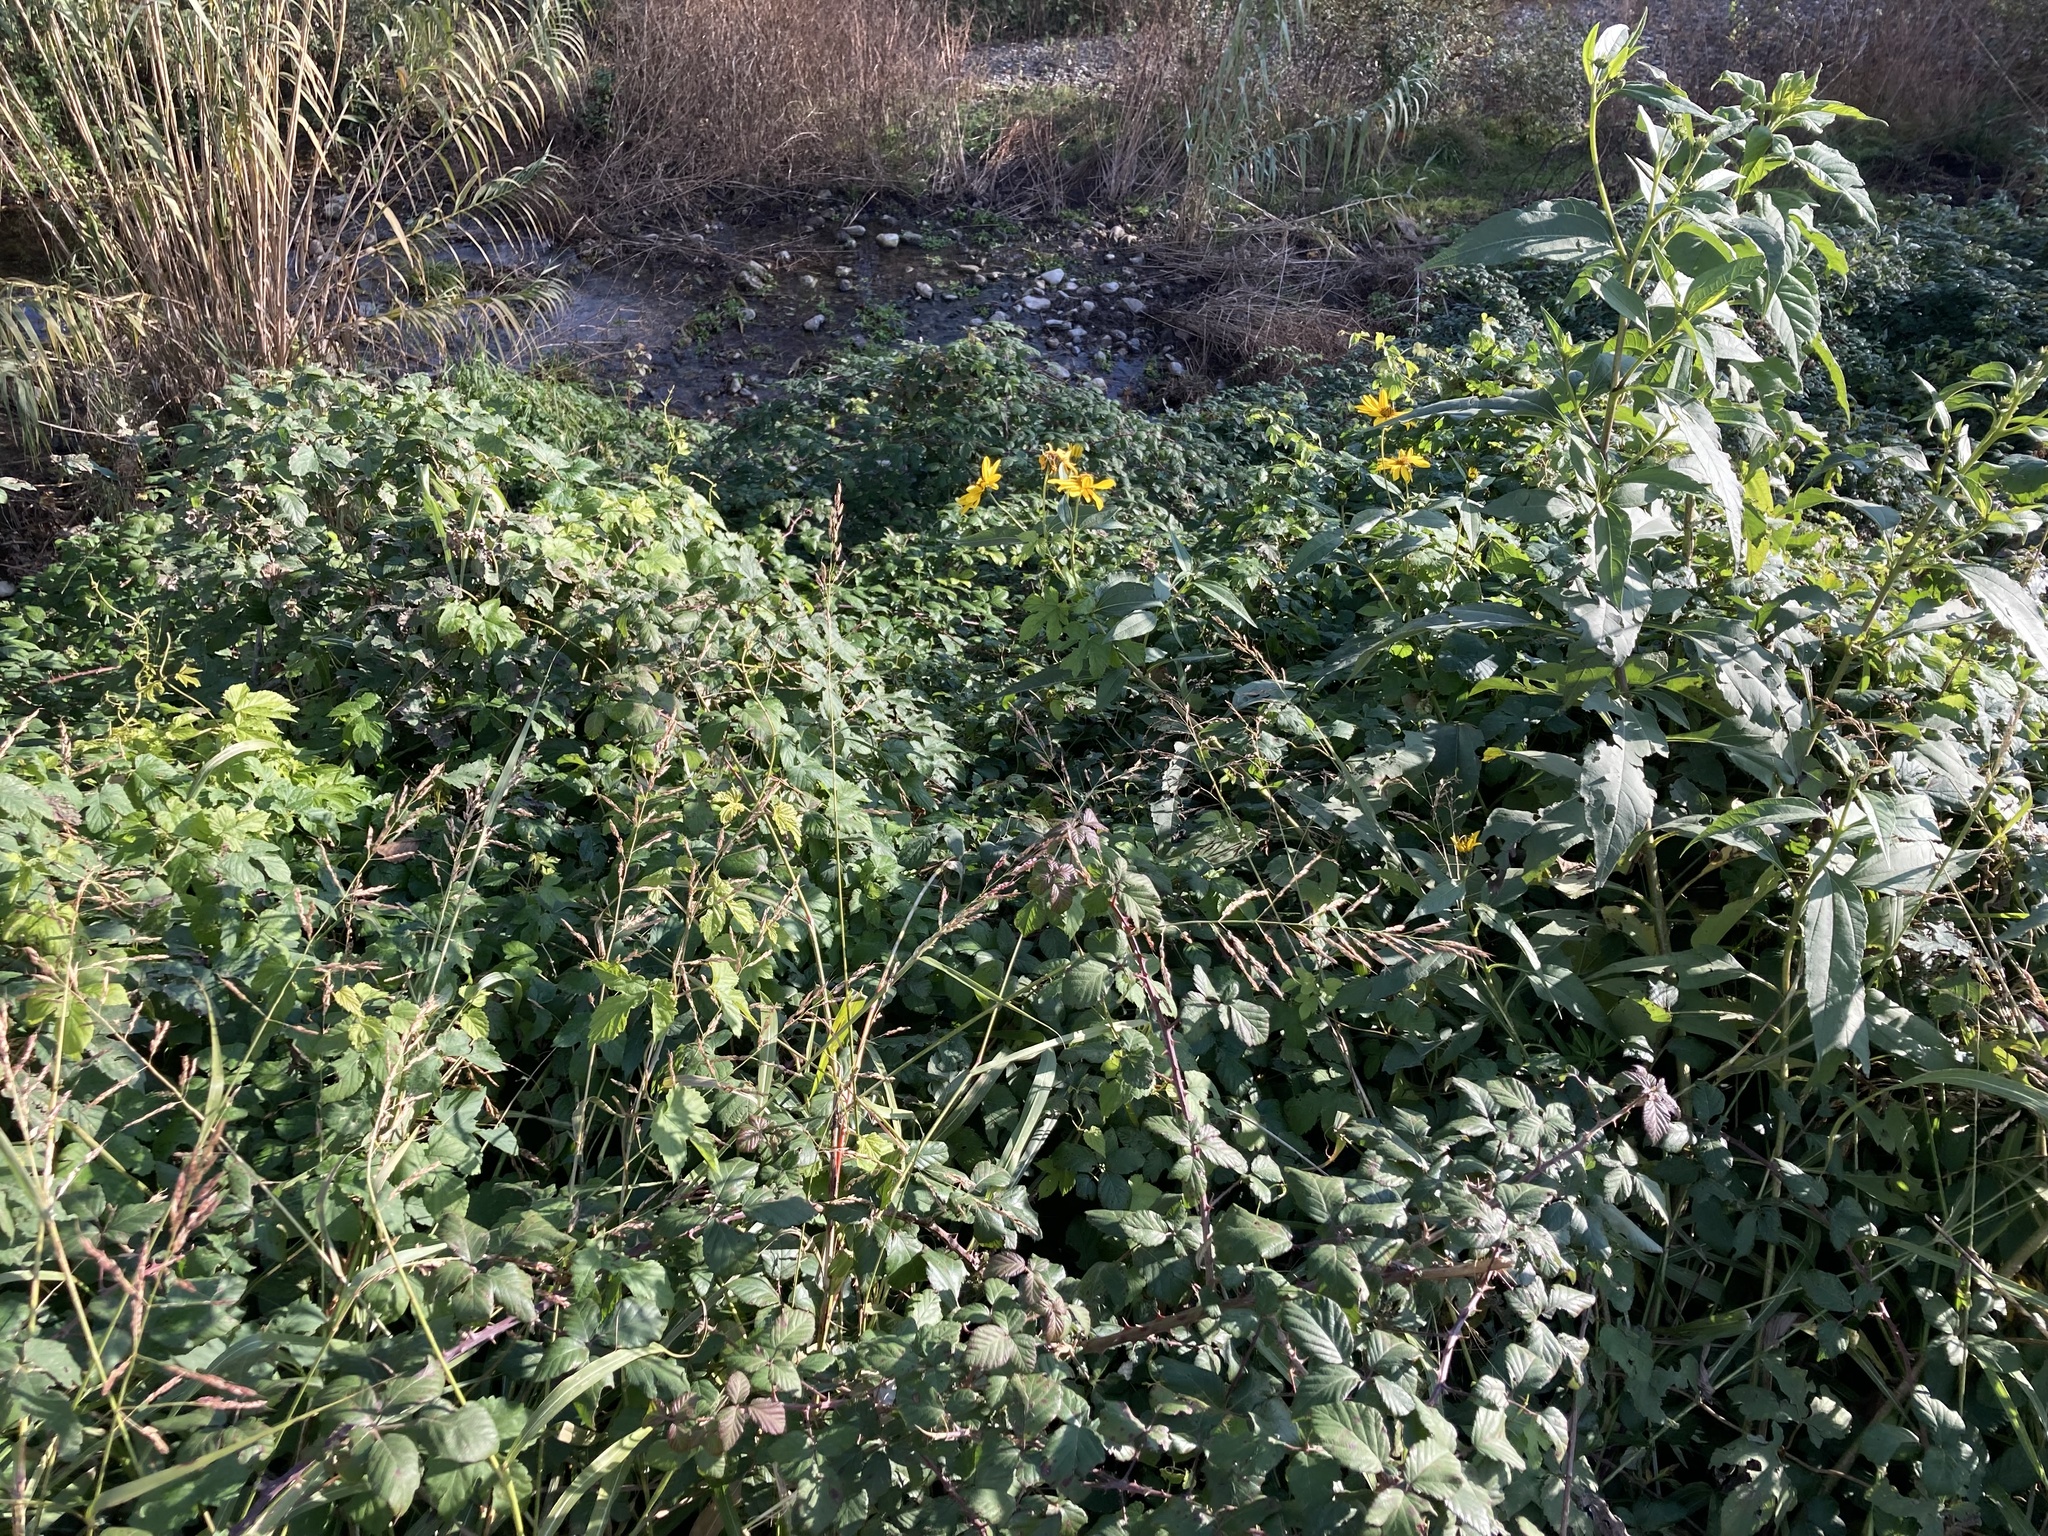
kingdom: Plantae
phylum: Tracheophyta
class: Magnoliopsida
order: Asterales
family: Asteraceae
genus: Helianthus
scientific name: Helianthus tuberosus
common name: Jerusalem artichoke
